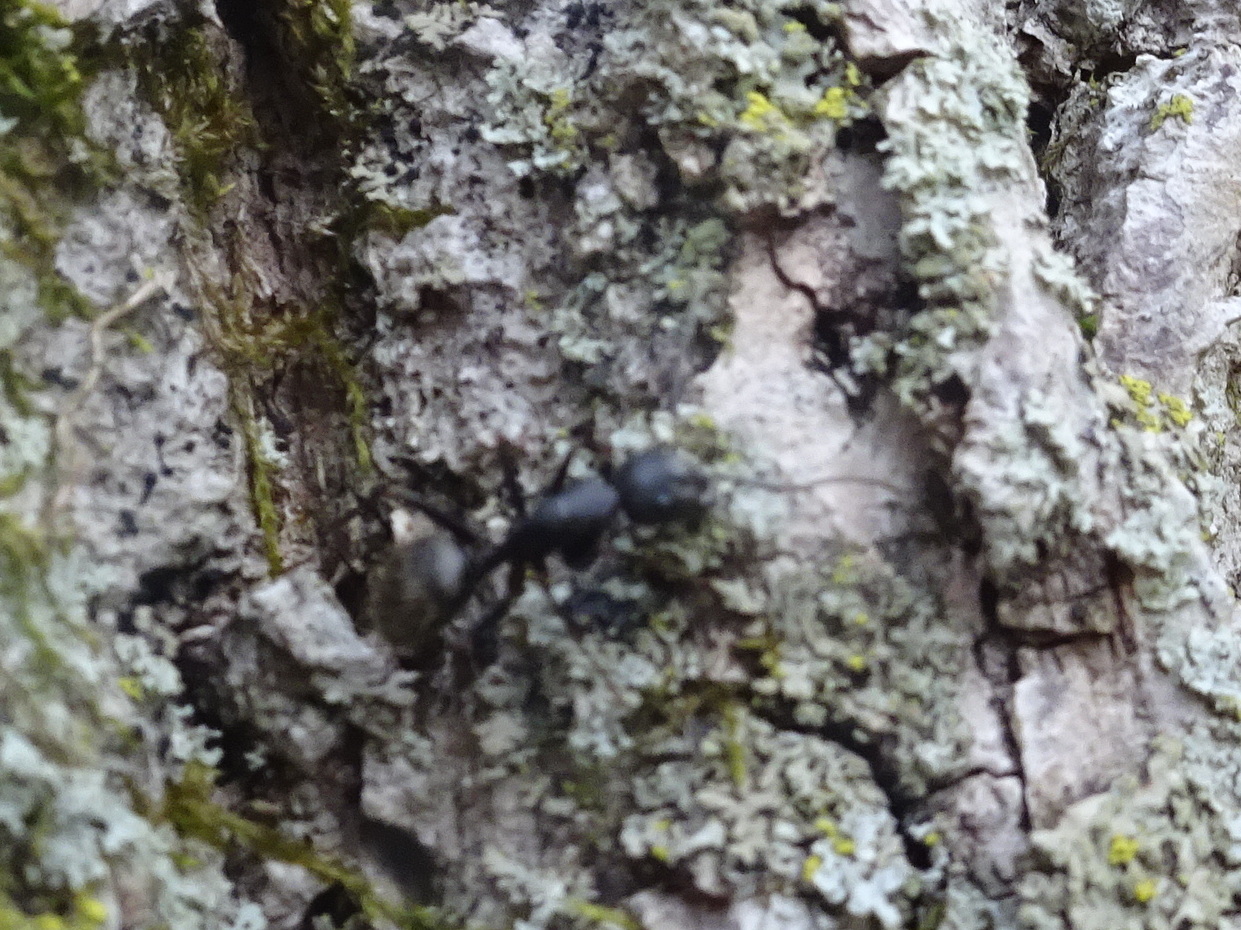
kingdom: Animalia
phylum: Arthropoda
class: Insecta
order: Hymenoptera
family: Formicidae
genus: Camponotus
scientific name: Camponotus pennsylvanicus
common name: Black carpenter ant
